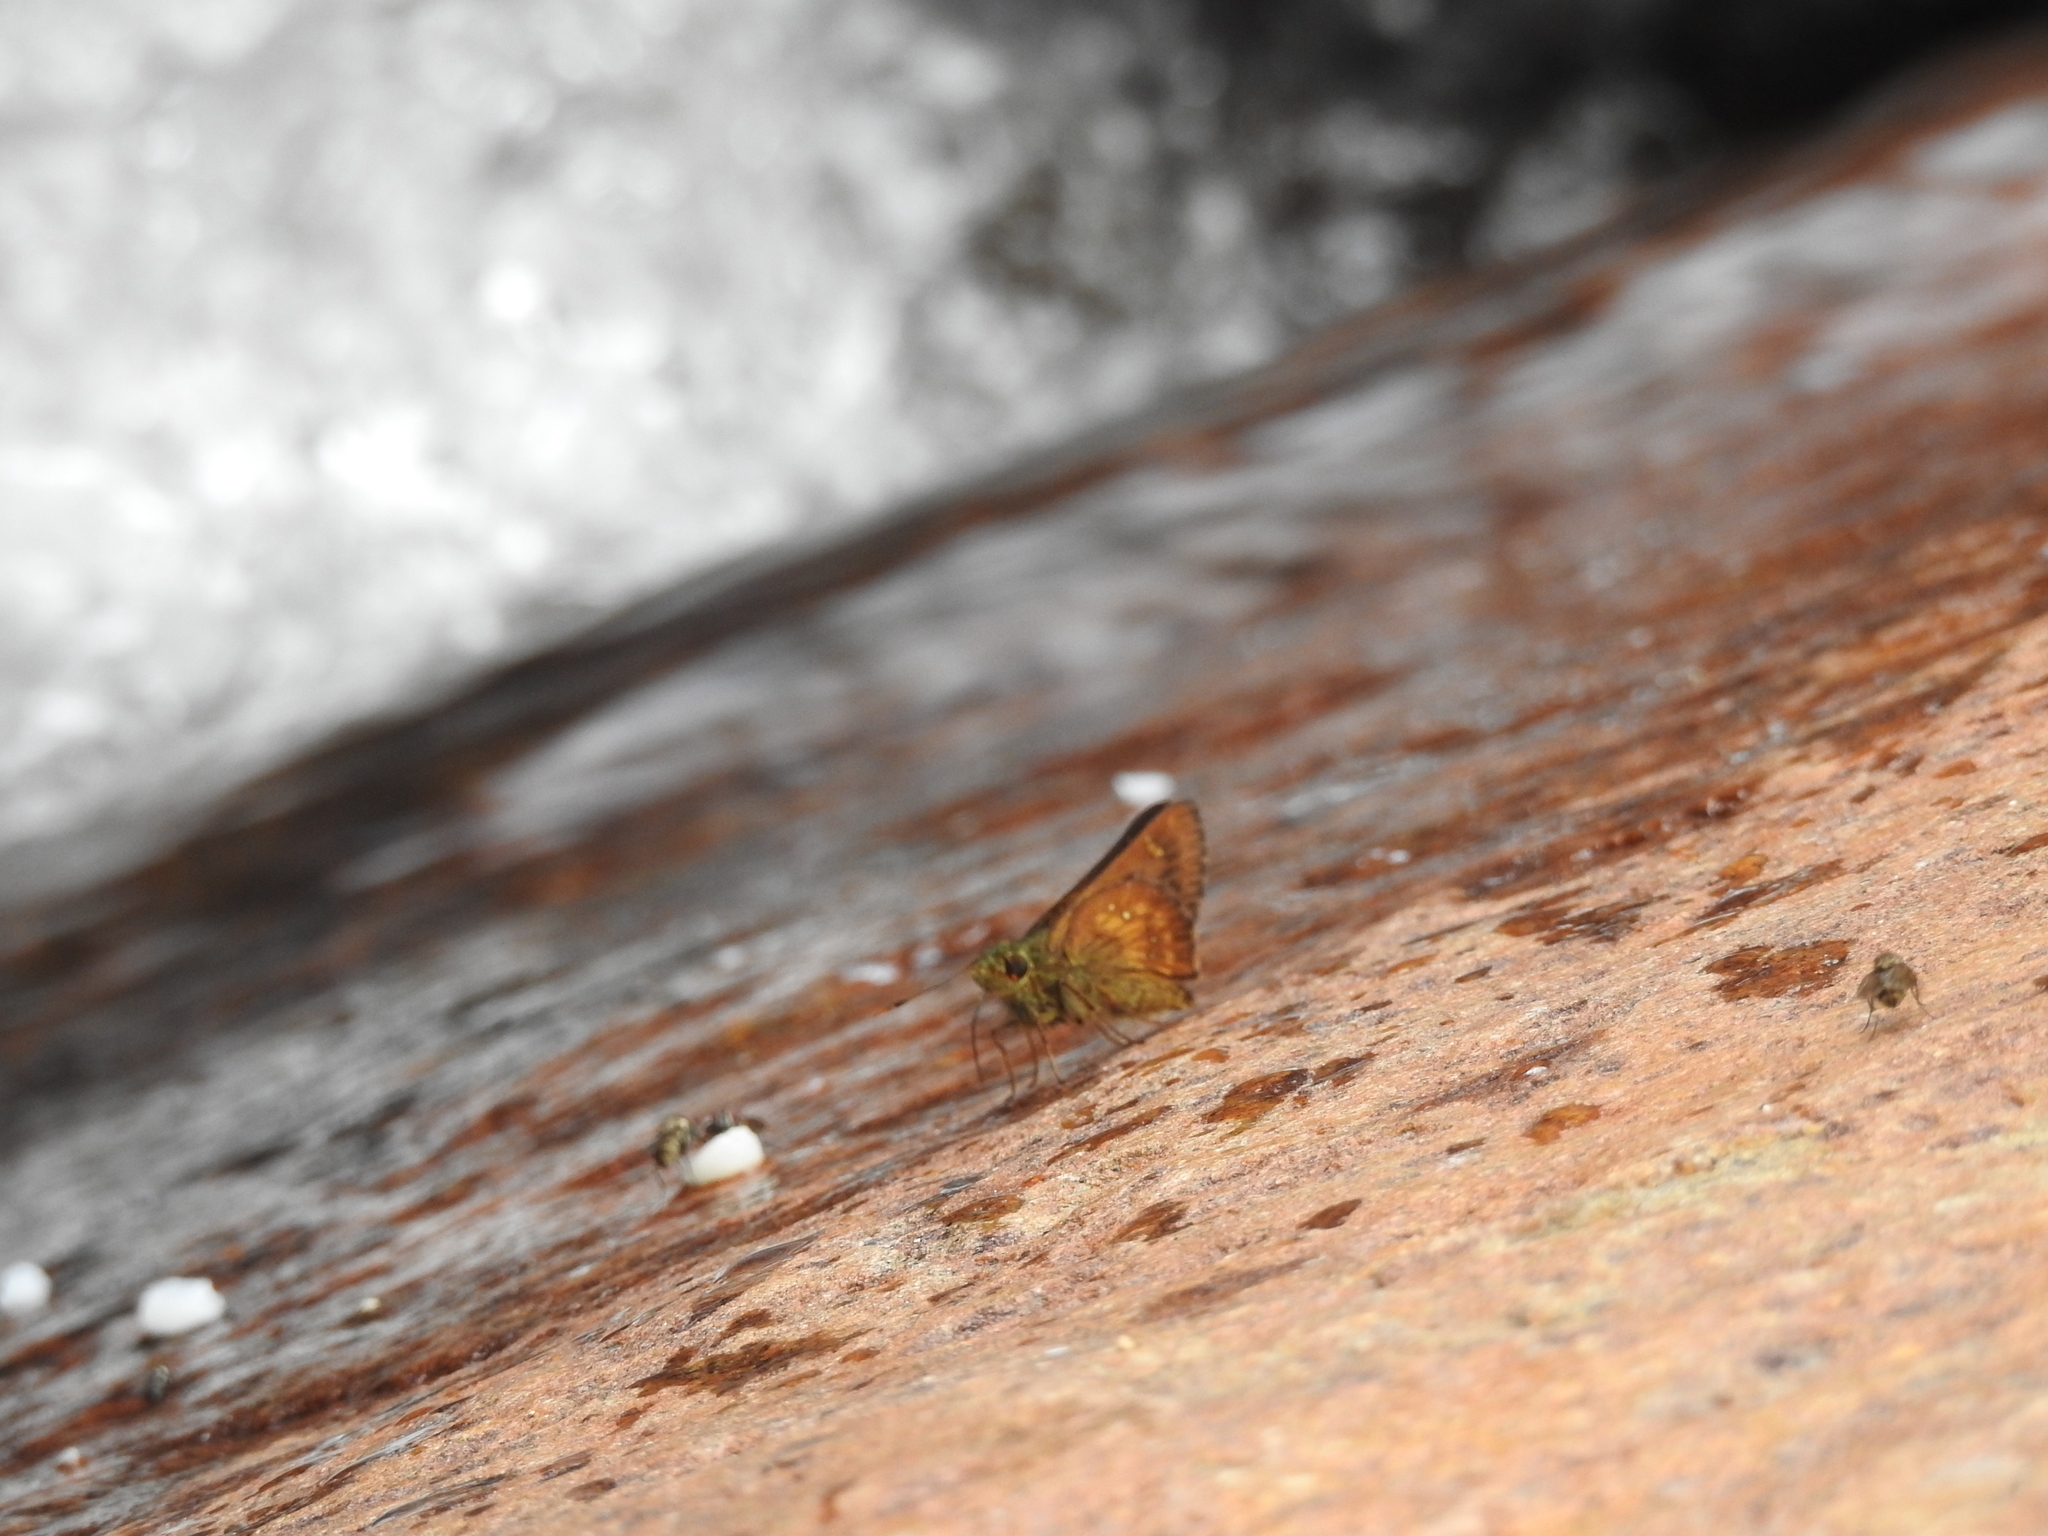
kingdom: Animalia
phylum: Arthropoda
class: Insecta
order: Lepidoptera
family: Hesperiidae
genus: Thoressa
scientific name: Thoressa evershedi
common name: Evershed's ace
